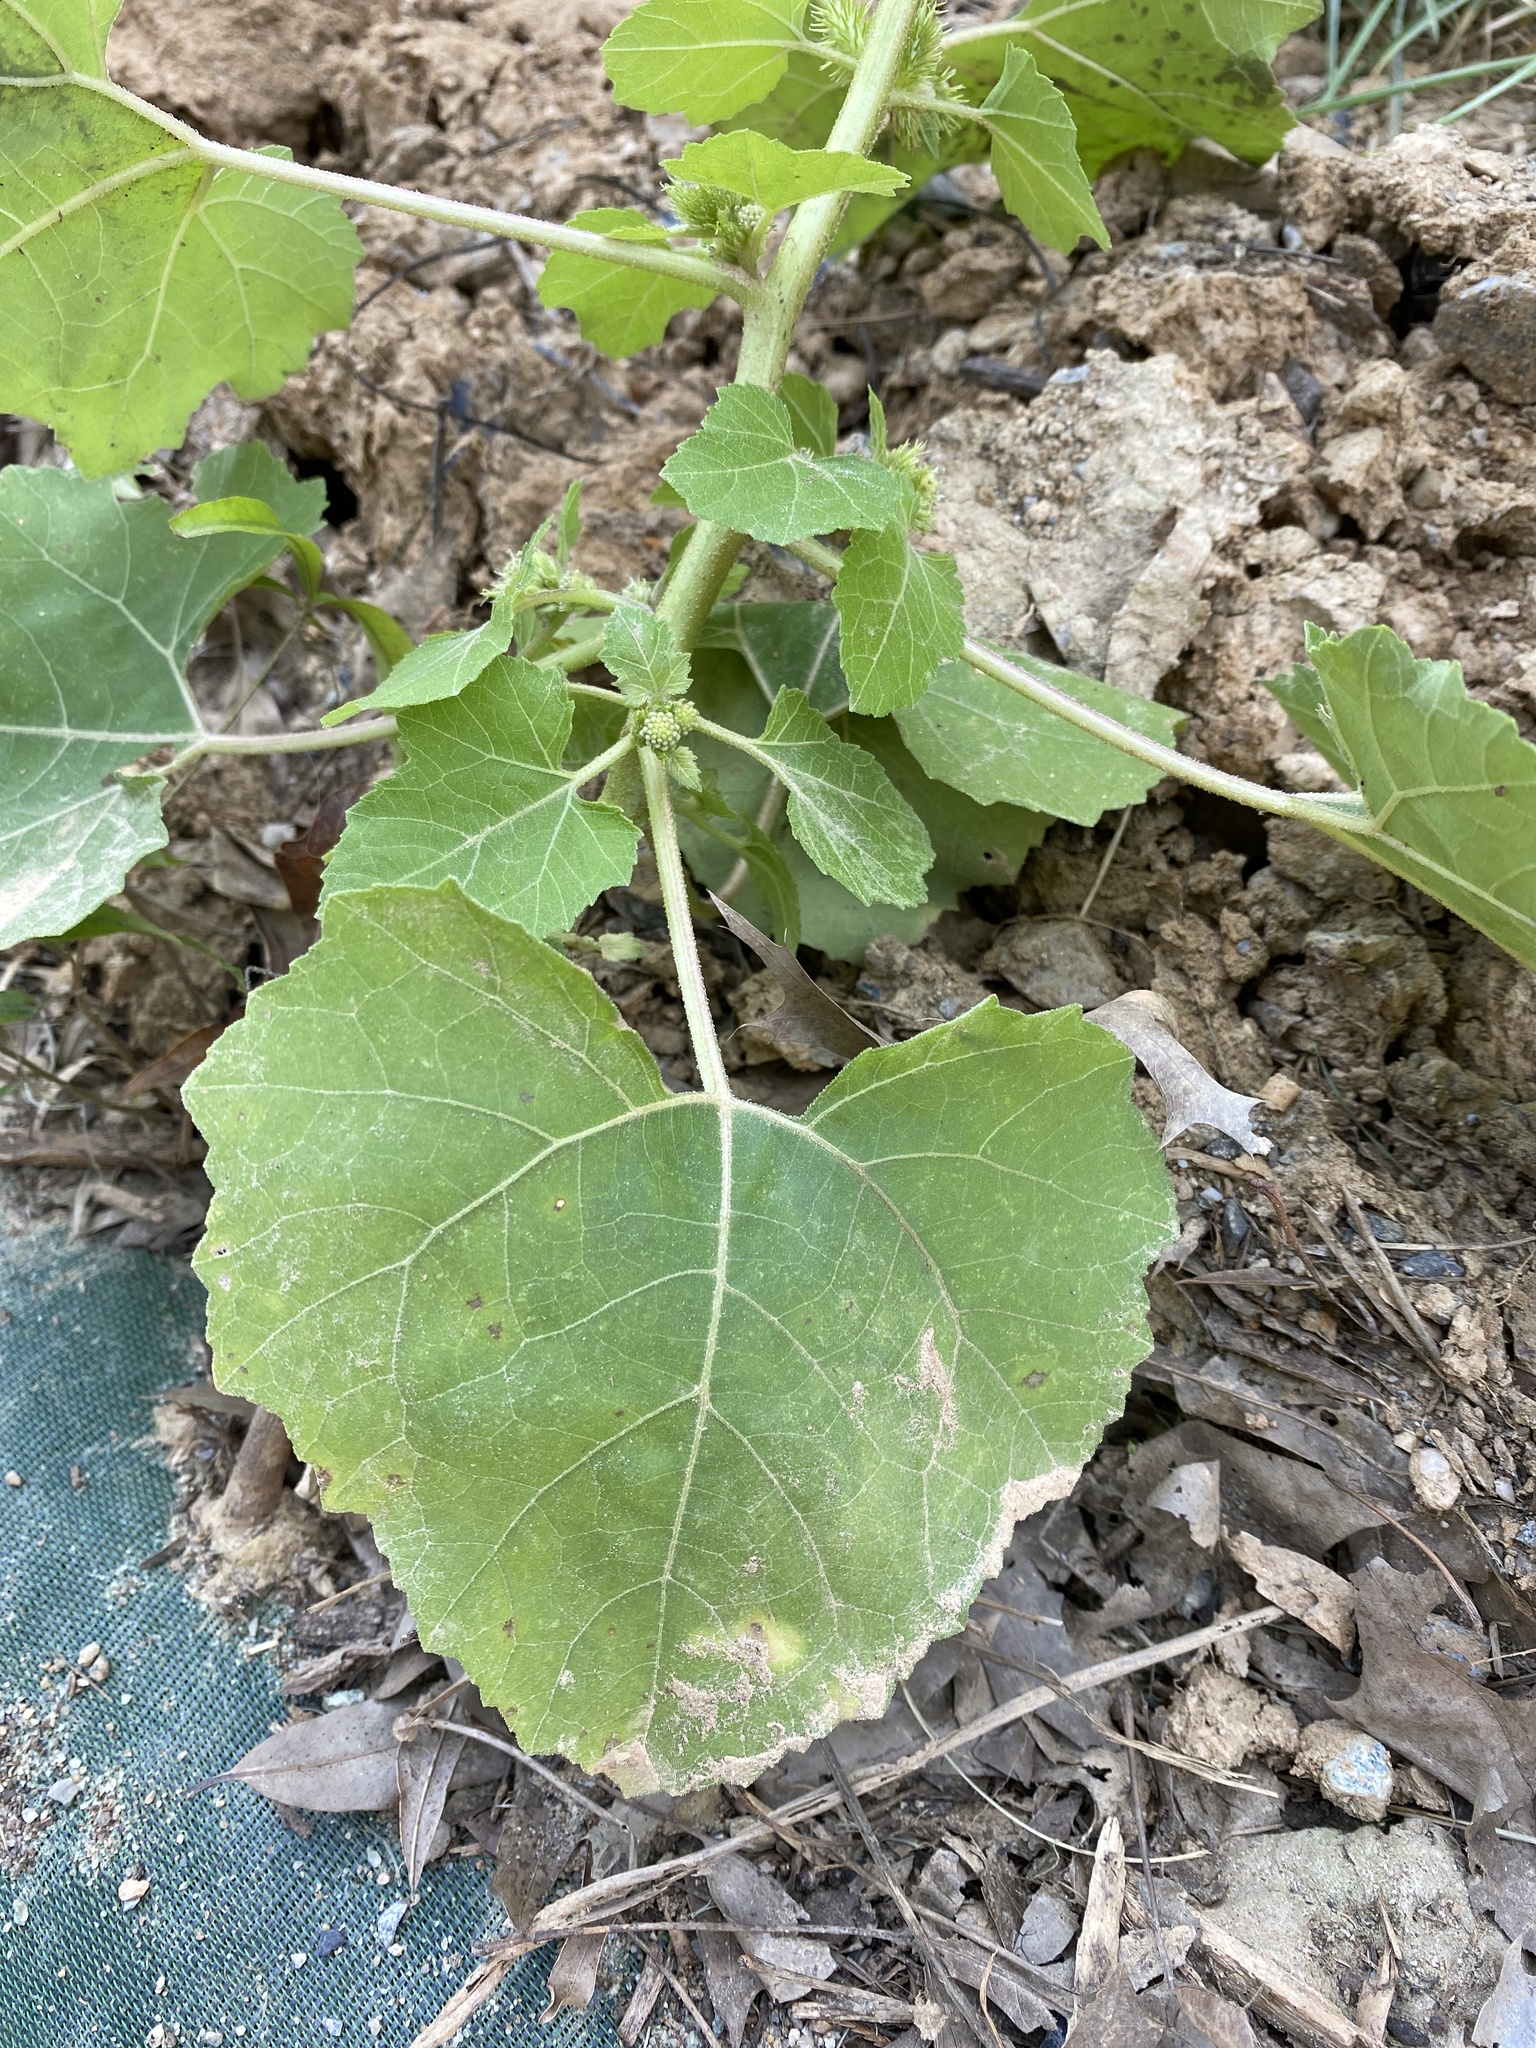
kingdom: Plantae
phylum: Tracheophyta
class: Magnoliopsida
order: Asterales
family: Asteraceae
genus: Xanthium
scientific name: Xanthium strumarium
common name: Rough cocklebur
